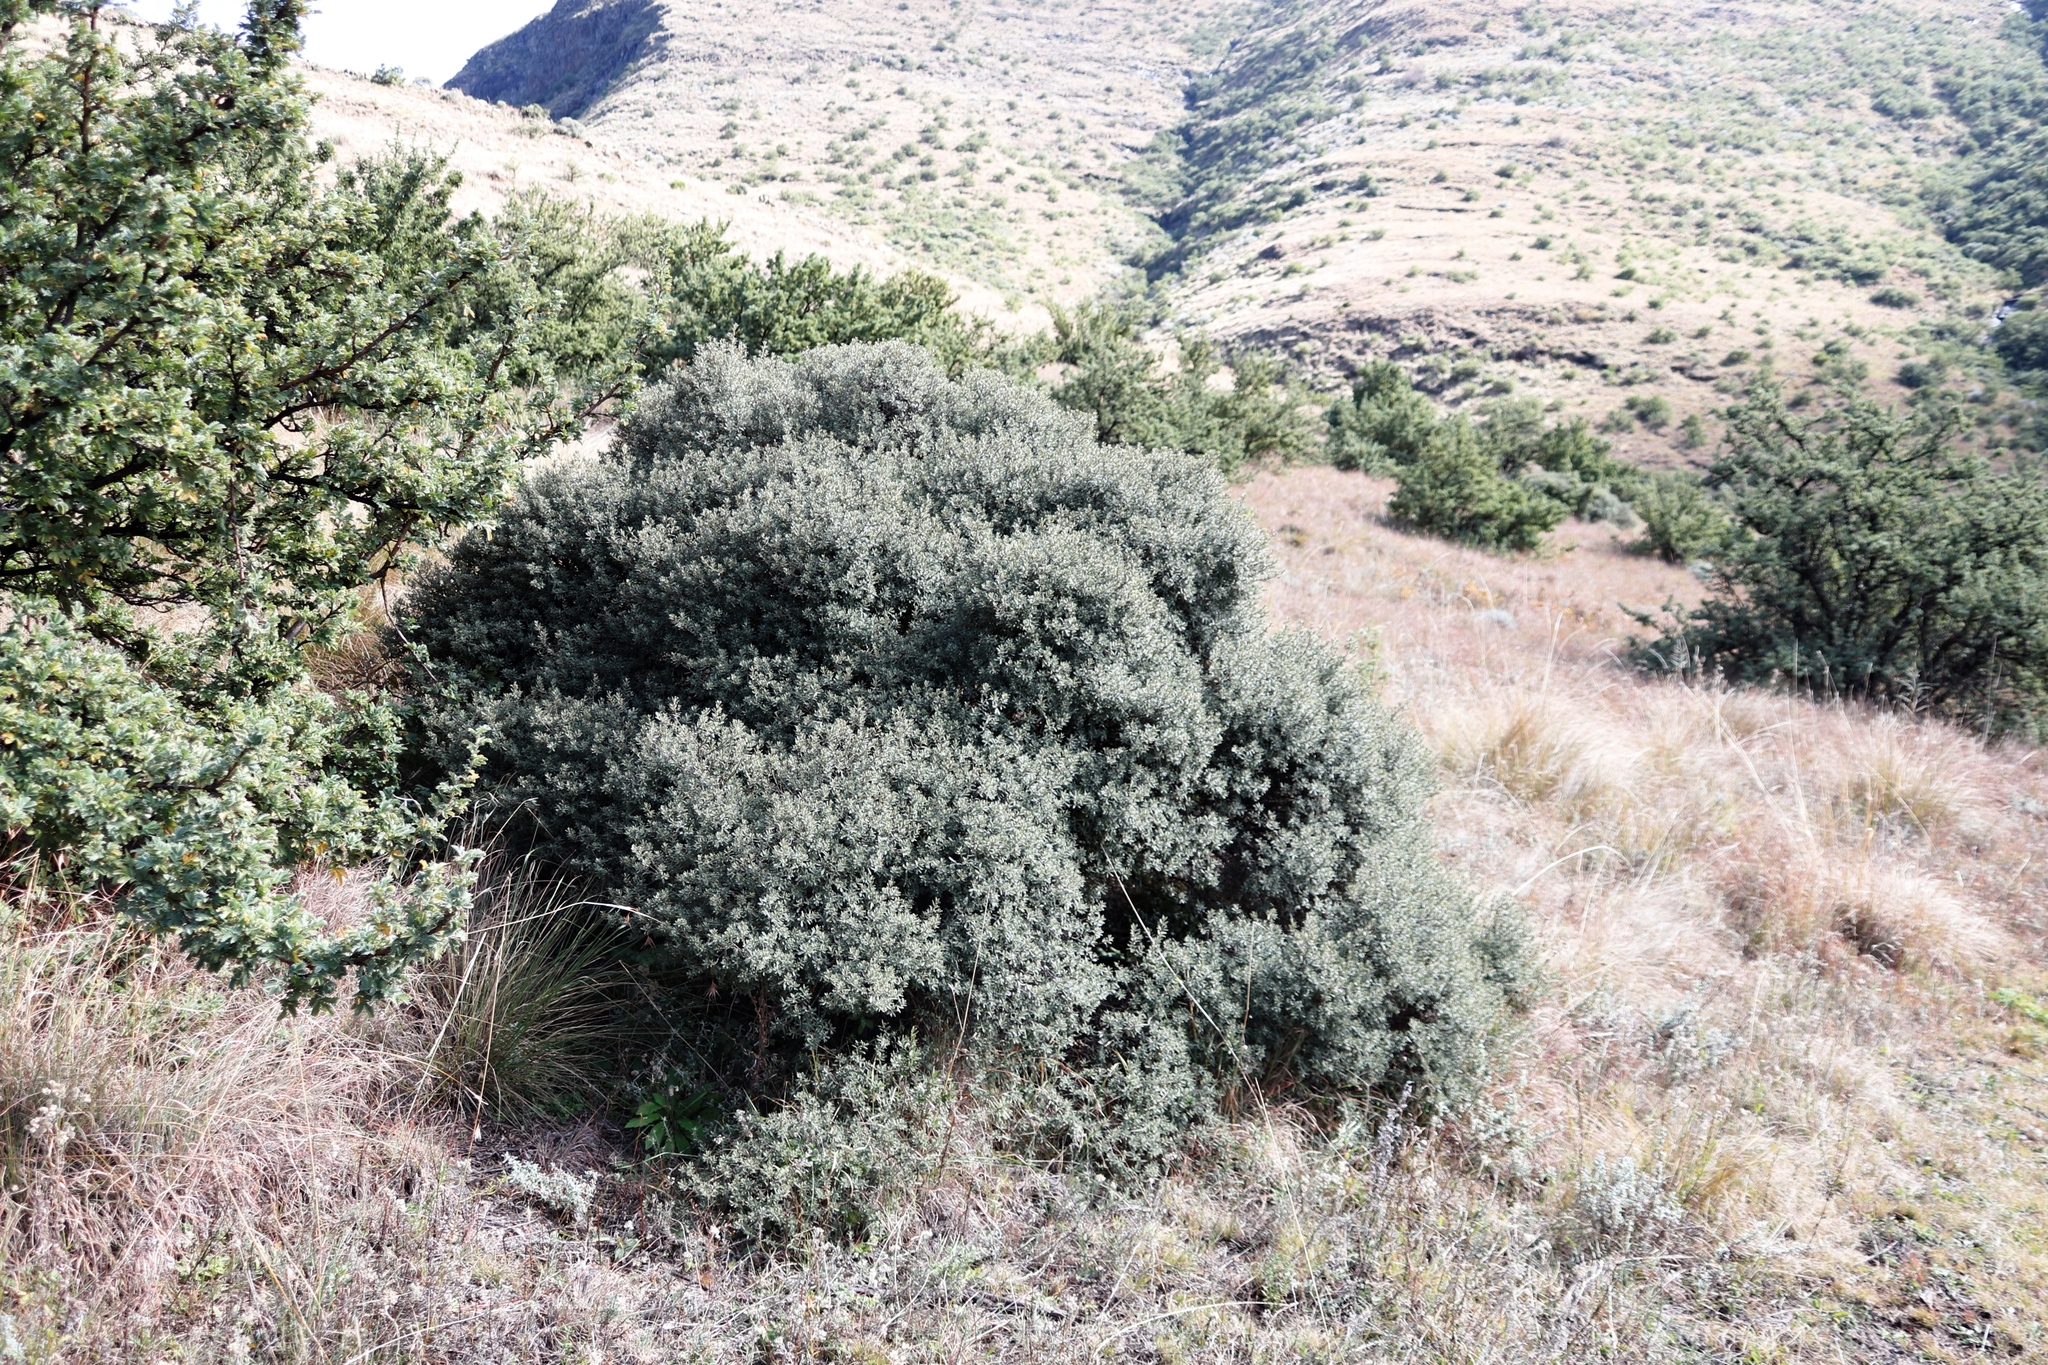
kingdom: Plantae
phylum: Tracheophyta
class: Magnoliopsida
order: Ericales
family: Ebenaceae
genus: Diospyros
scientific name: Diospyros pubescens
